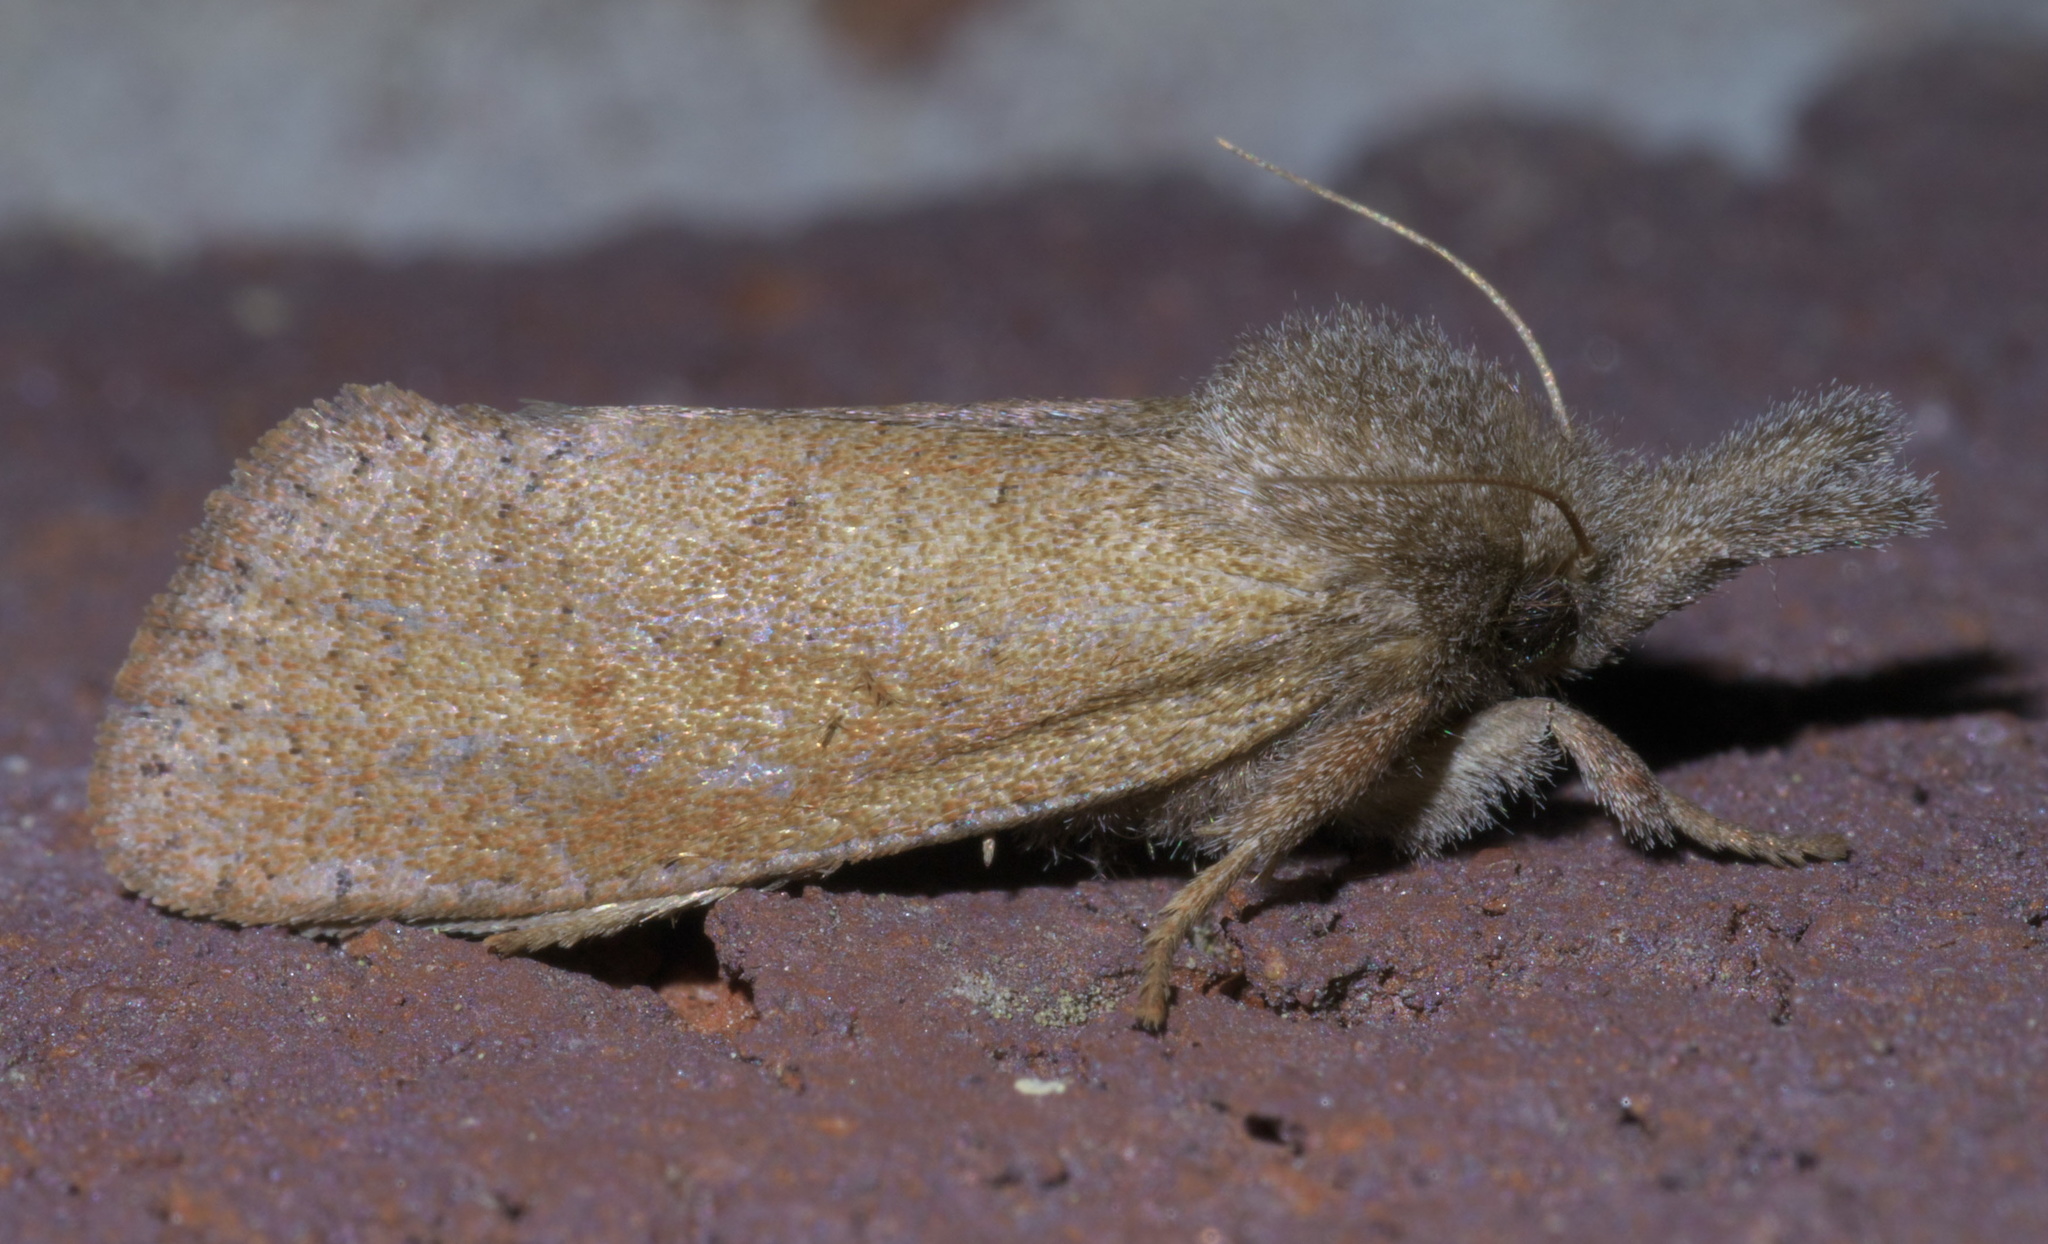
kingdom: Animalia
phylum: Arthropoda
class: Insecta
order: Lepidoptera
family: Tineidae
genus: Acrolophus
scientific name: Acrolophus plumifrontella
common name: Eastern grass tubeworm moth
